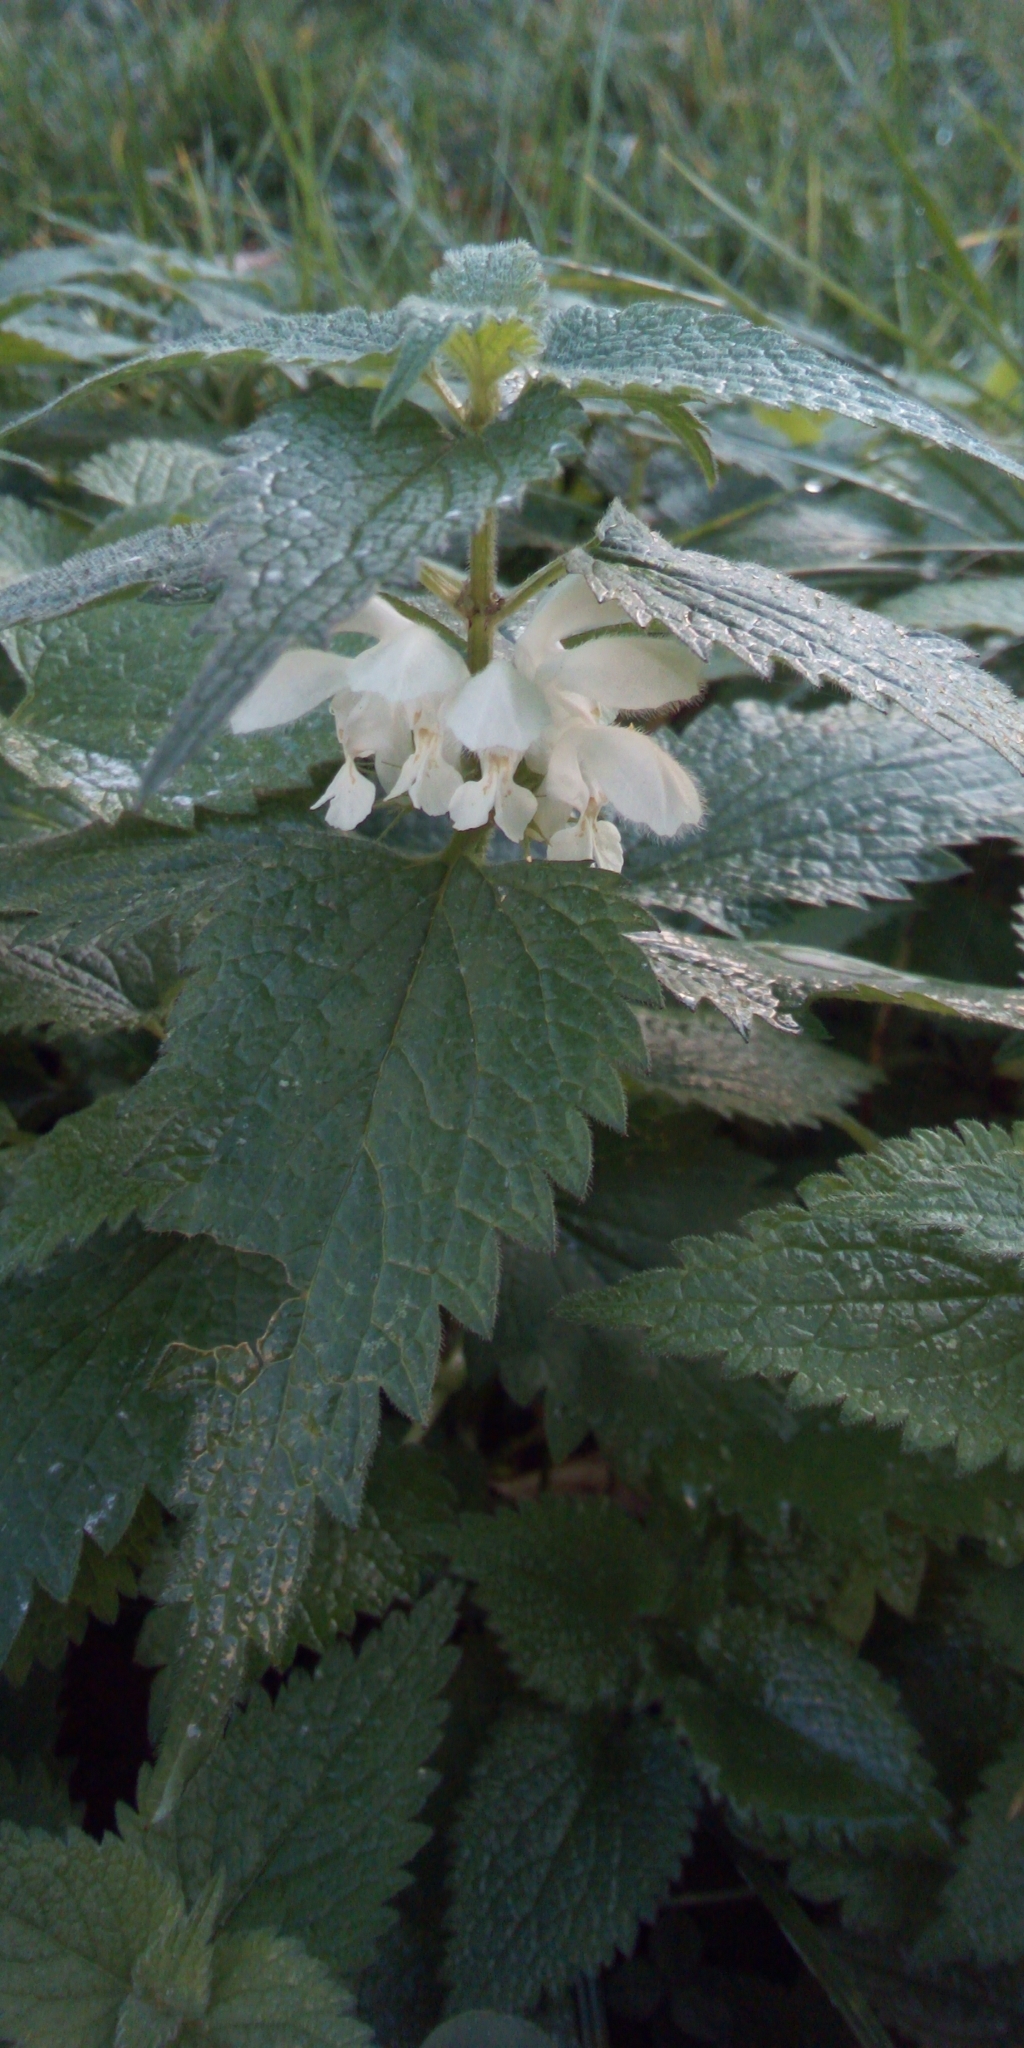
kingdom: Plantae
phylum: Tracheophyta
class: Magnoliopsida
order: Lamiales
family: Lamiaceae
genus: Lamium
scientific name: Lamium album
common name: White dead-nettle
